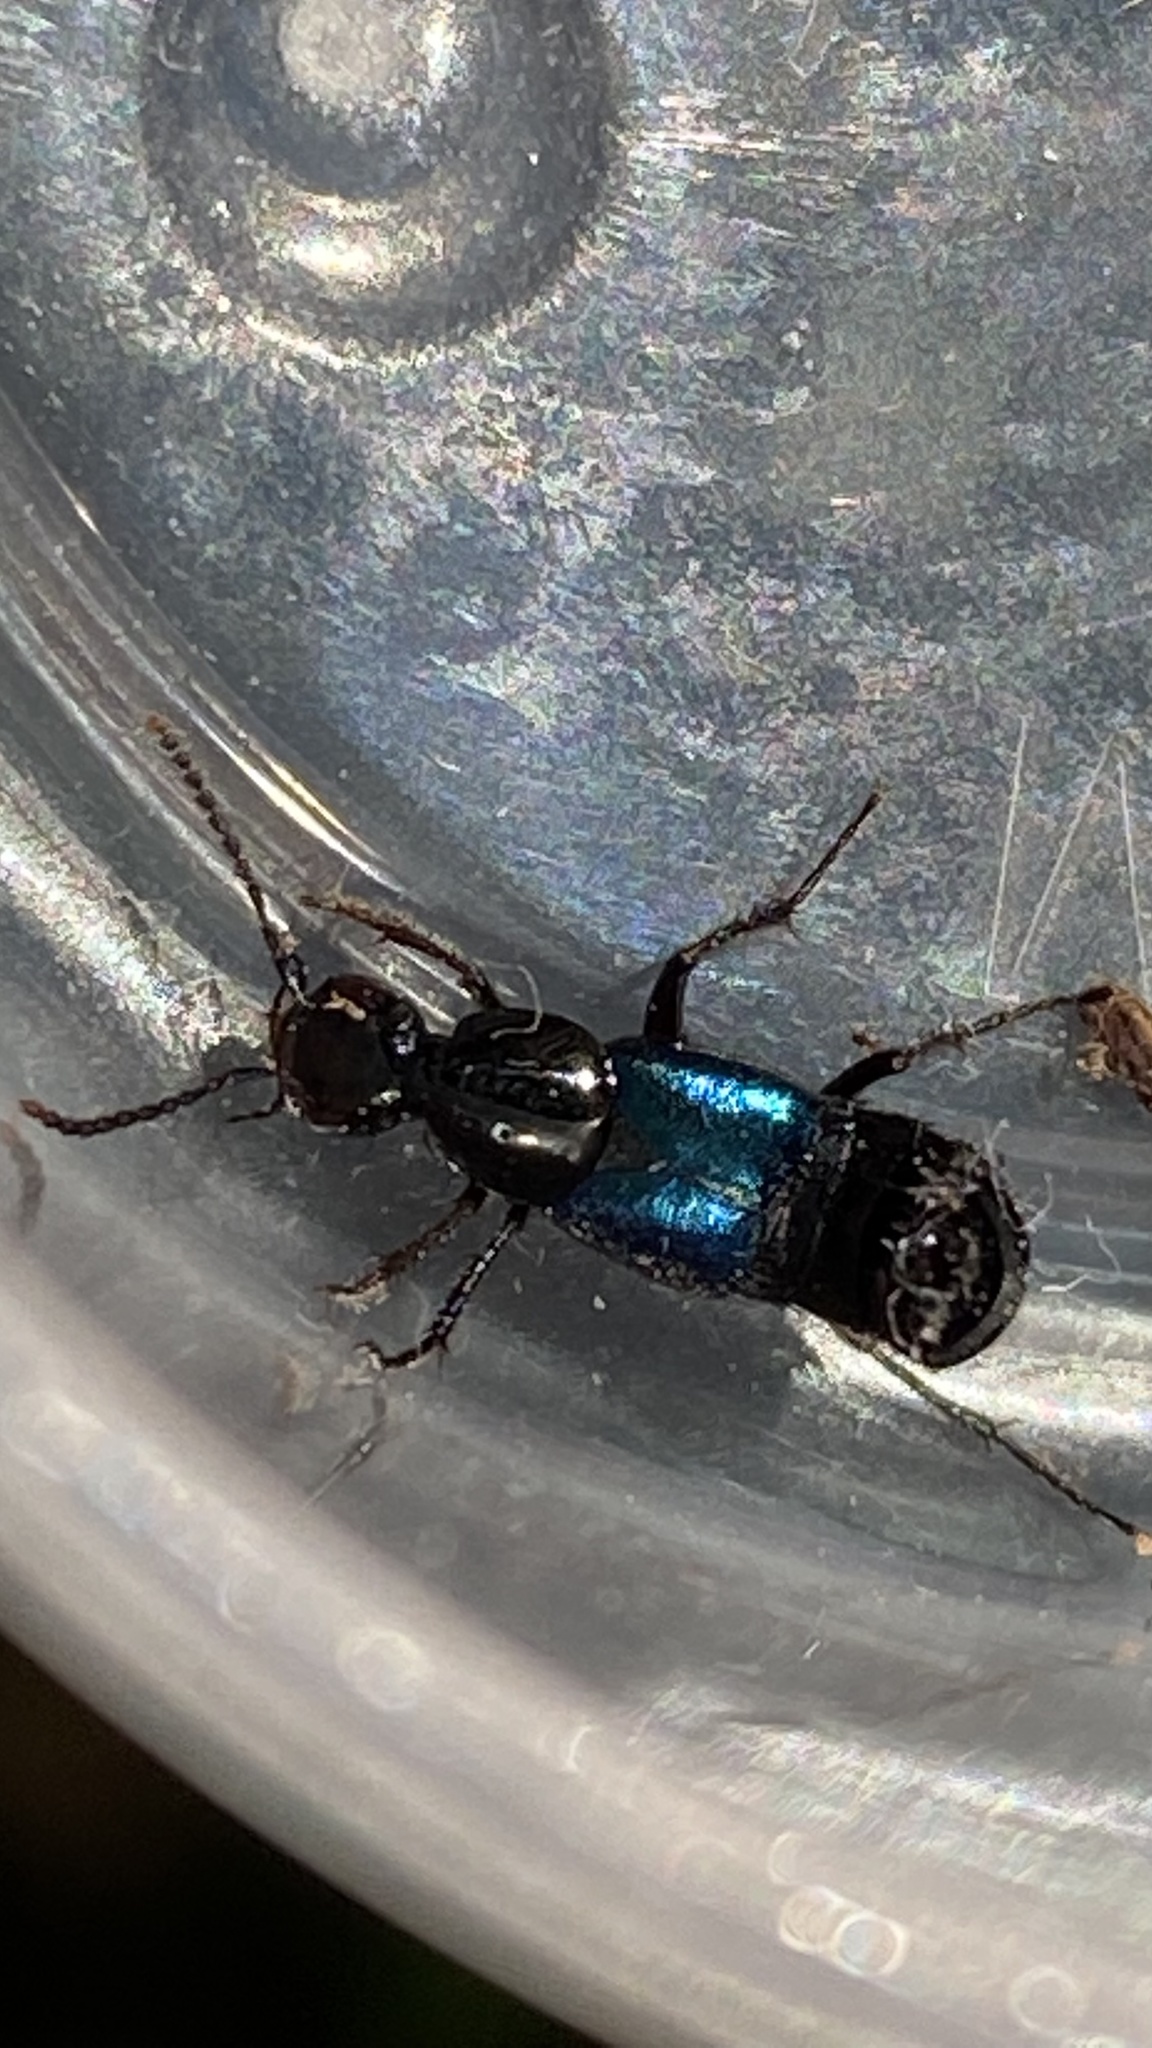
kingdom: Animalia
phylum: Arthropoda
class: Insecta
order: Coleoptera
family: Staphylinidae
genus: Philonthus
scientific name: Philonthus cyanipennis
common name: Staph beetle
